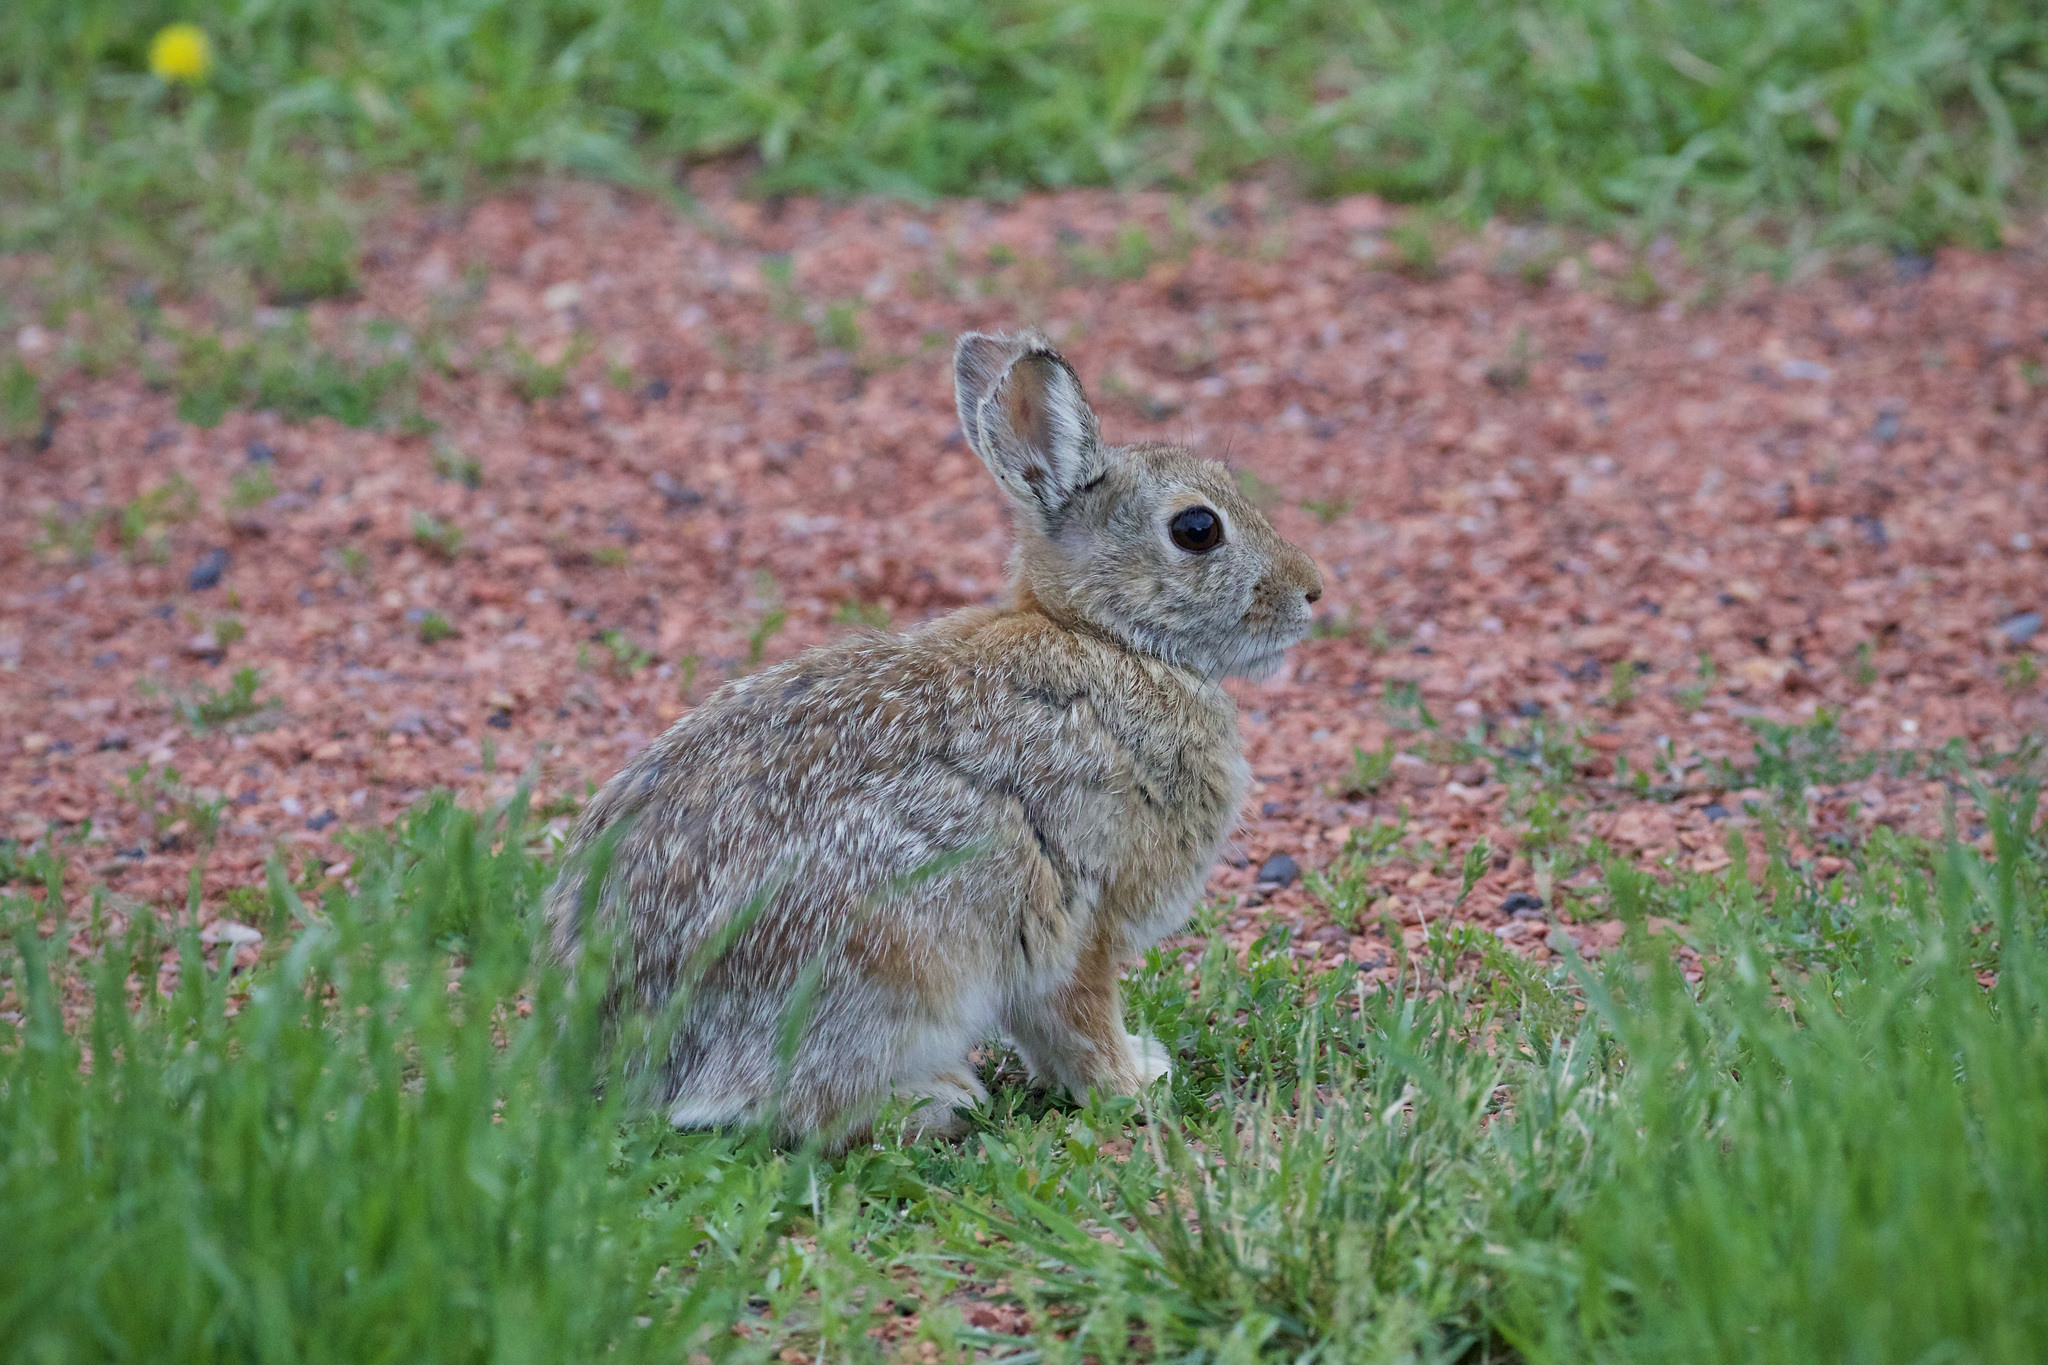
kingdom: Animalia
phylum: Chordata
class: Mammalia
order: Lagomorpha
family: Leporidae
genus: Sylvilagus
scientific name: Sylvilagus nuttallii
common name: Mountain cottontail
